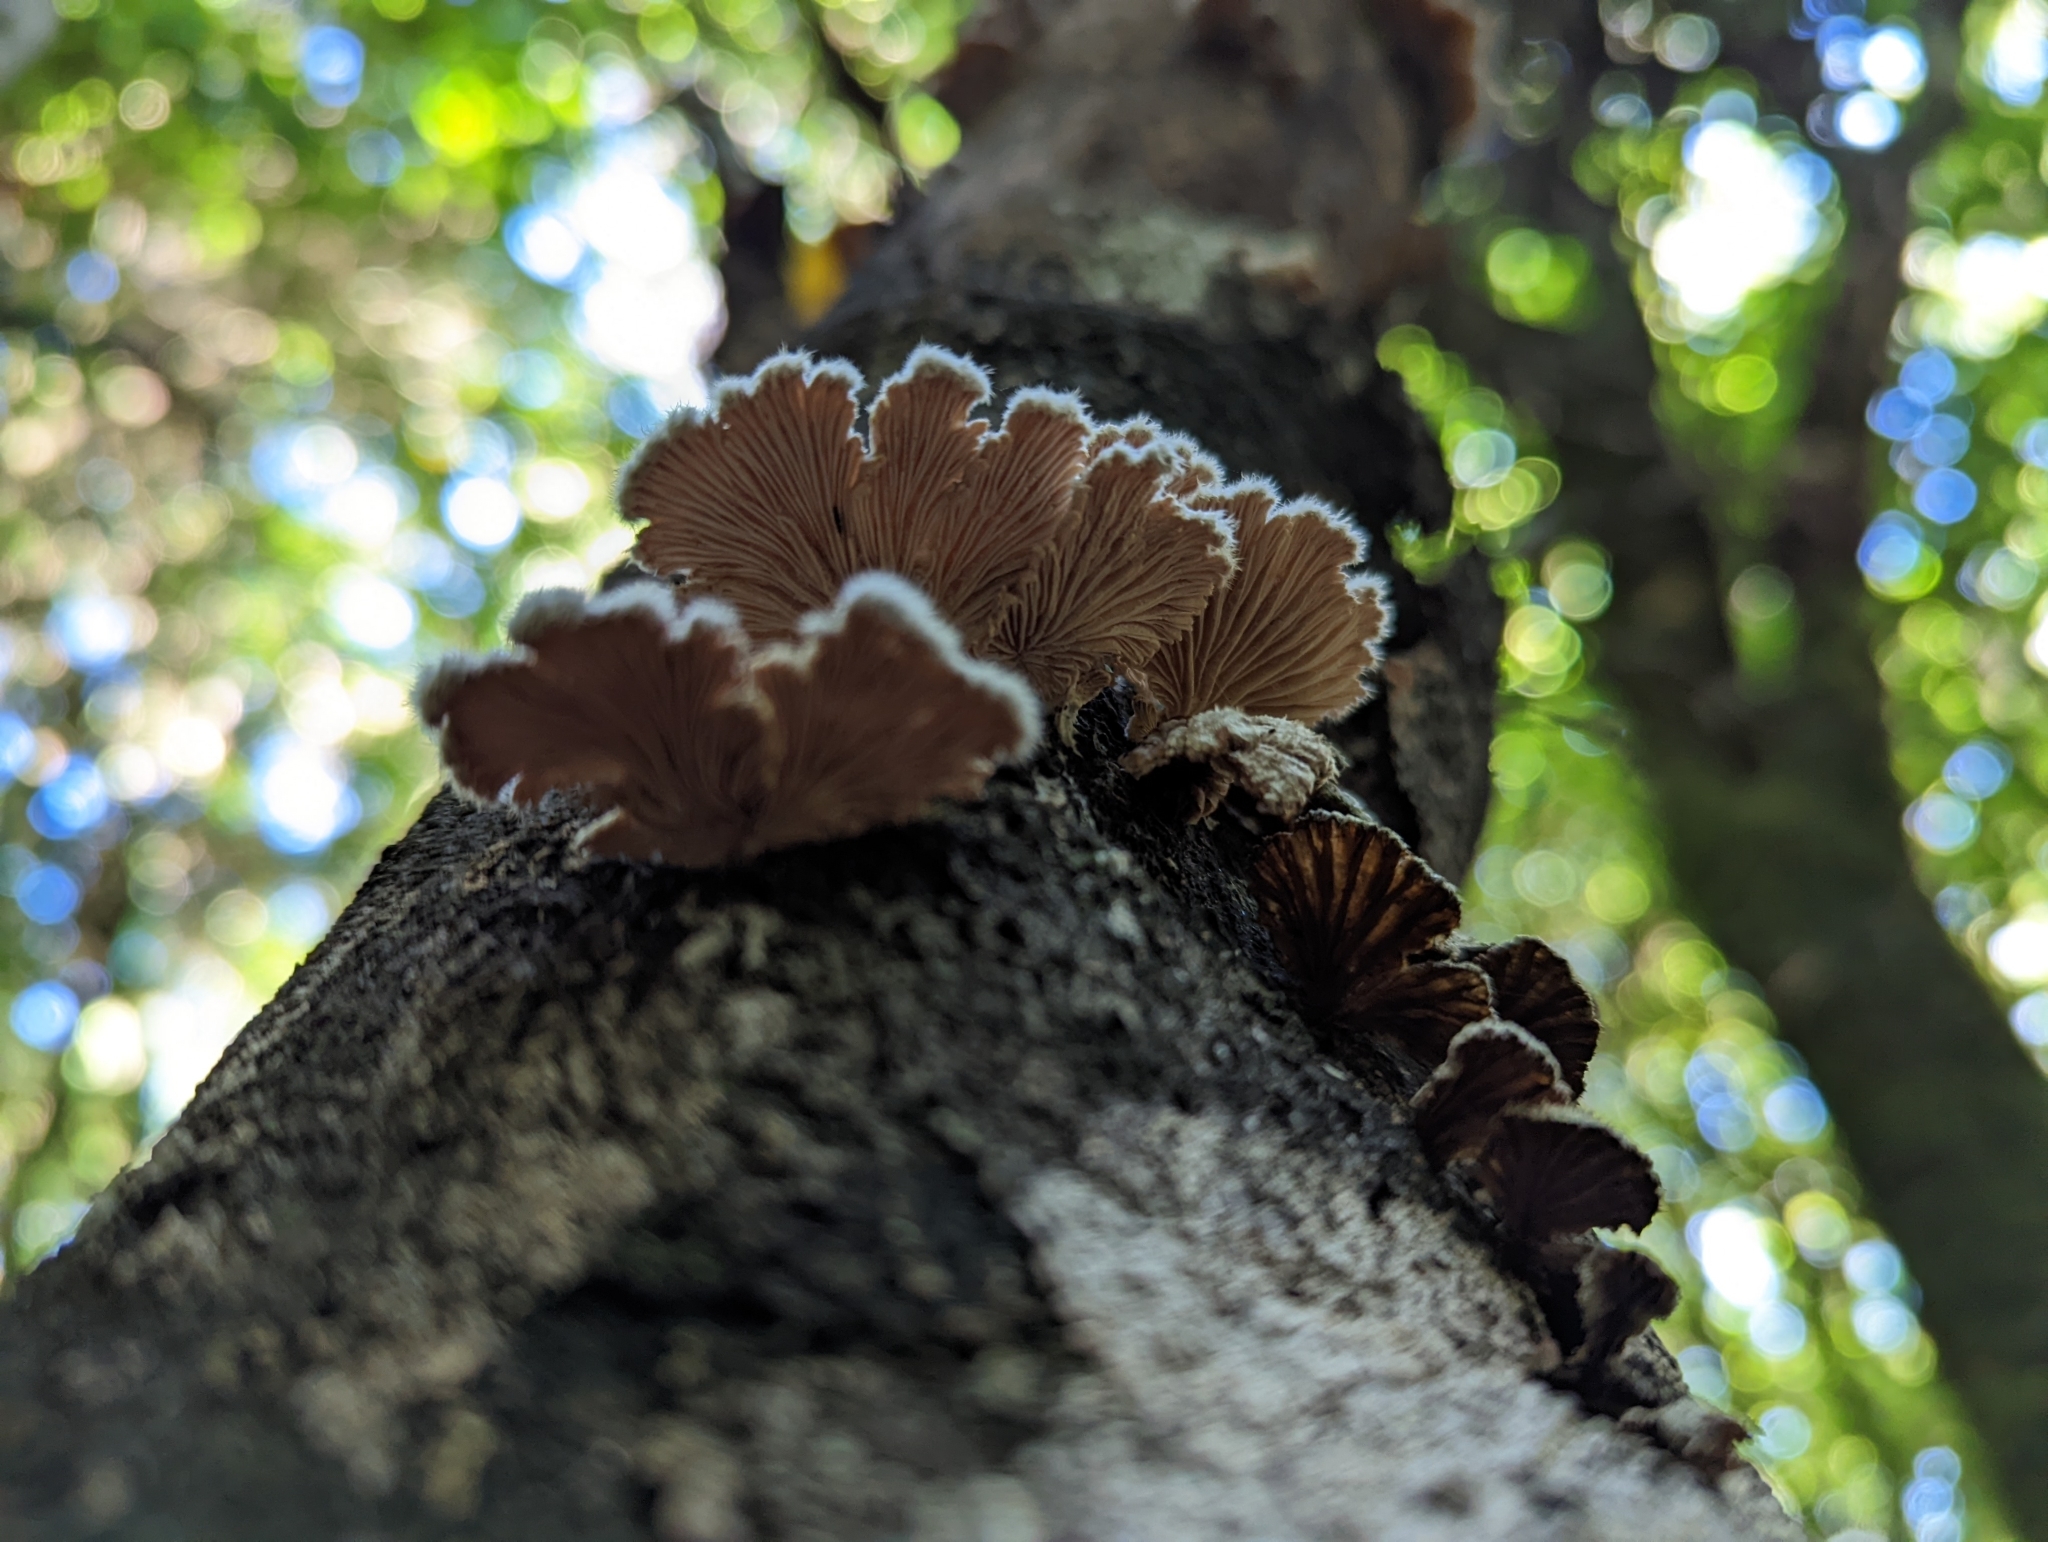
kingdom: Fungi
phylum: Basidiomycota
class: Agaricomycetes
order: Agaricales
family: Schizophyllaceae
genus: Schizophyllum
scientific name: Schizophyllum commune
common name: Common porecrust
